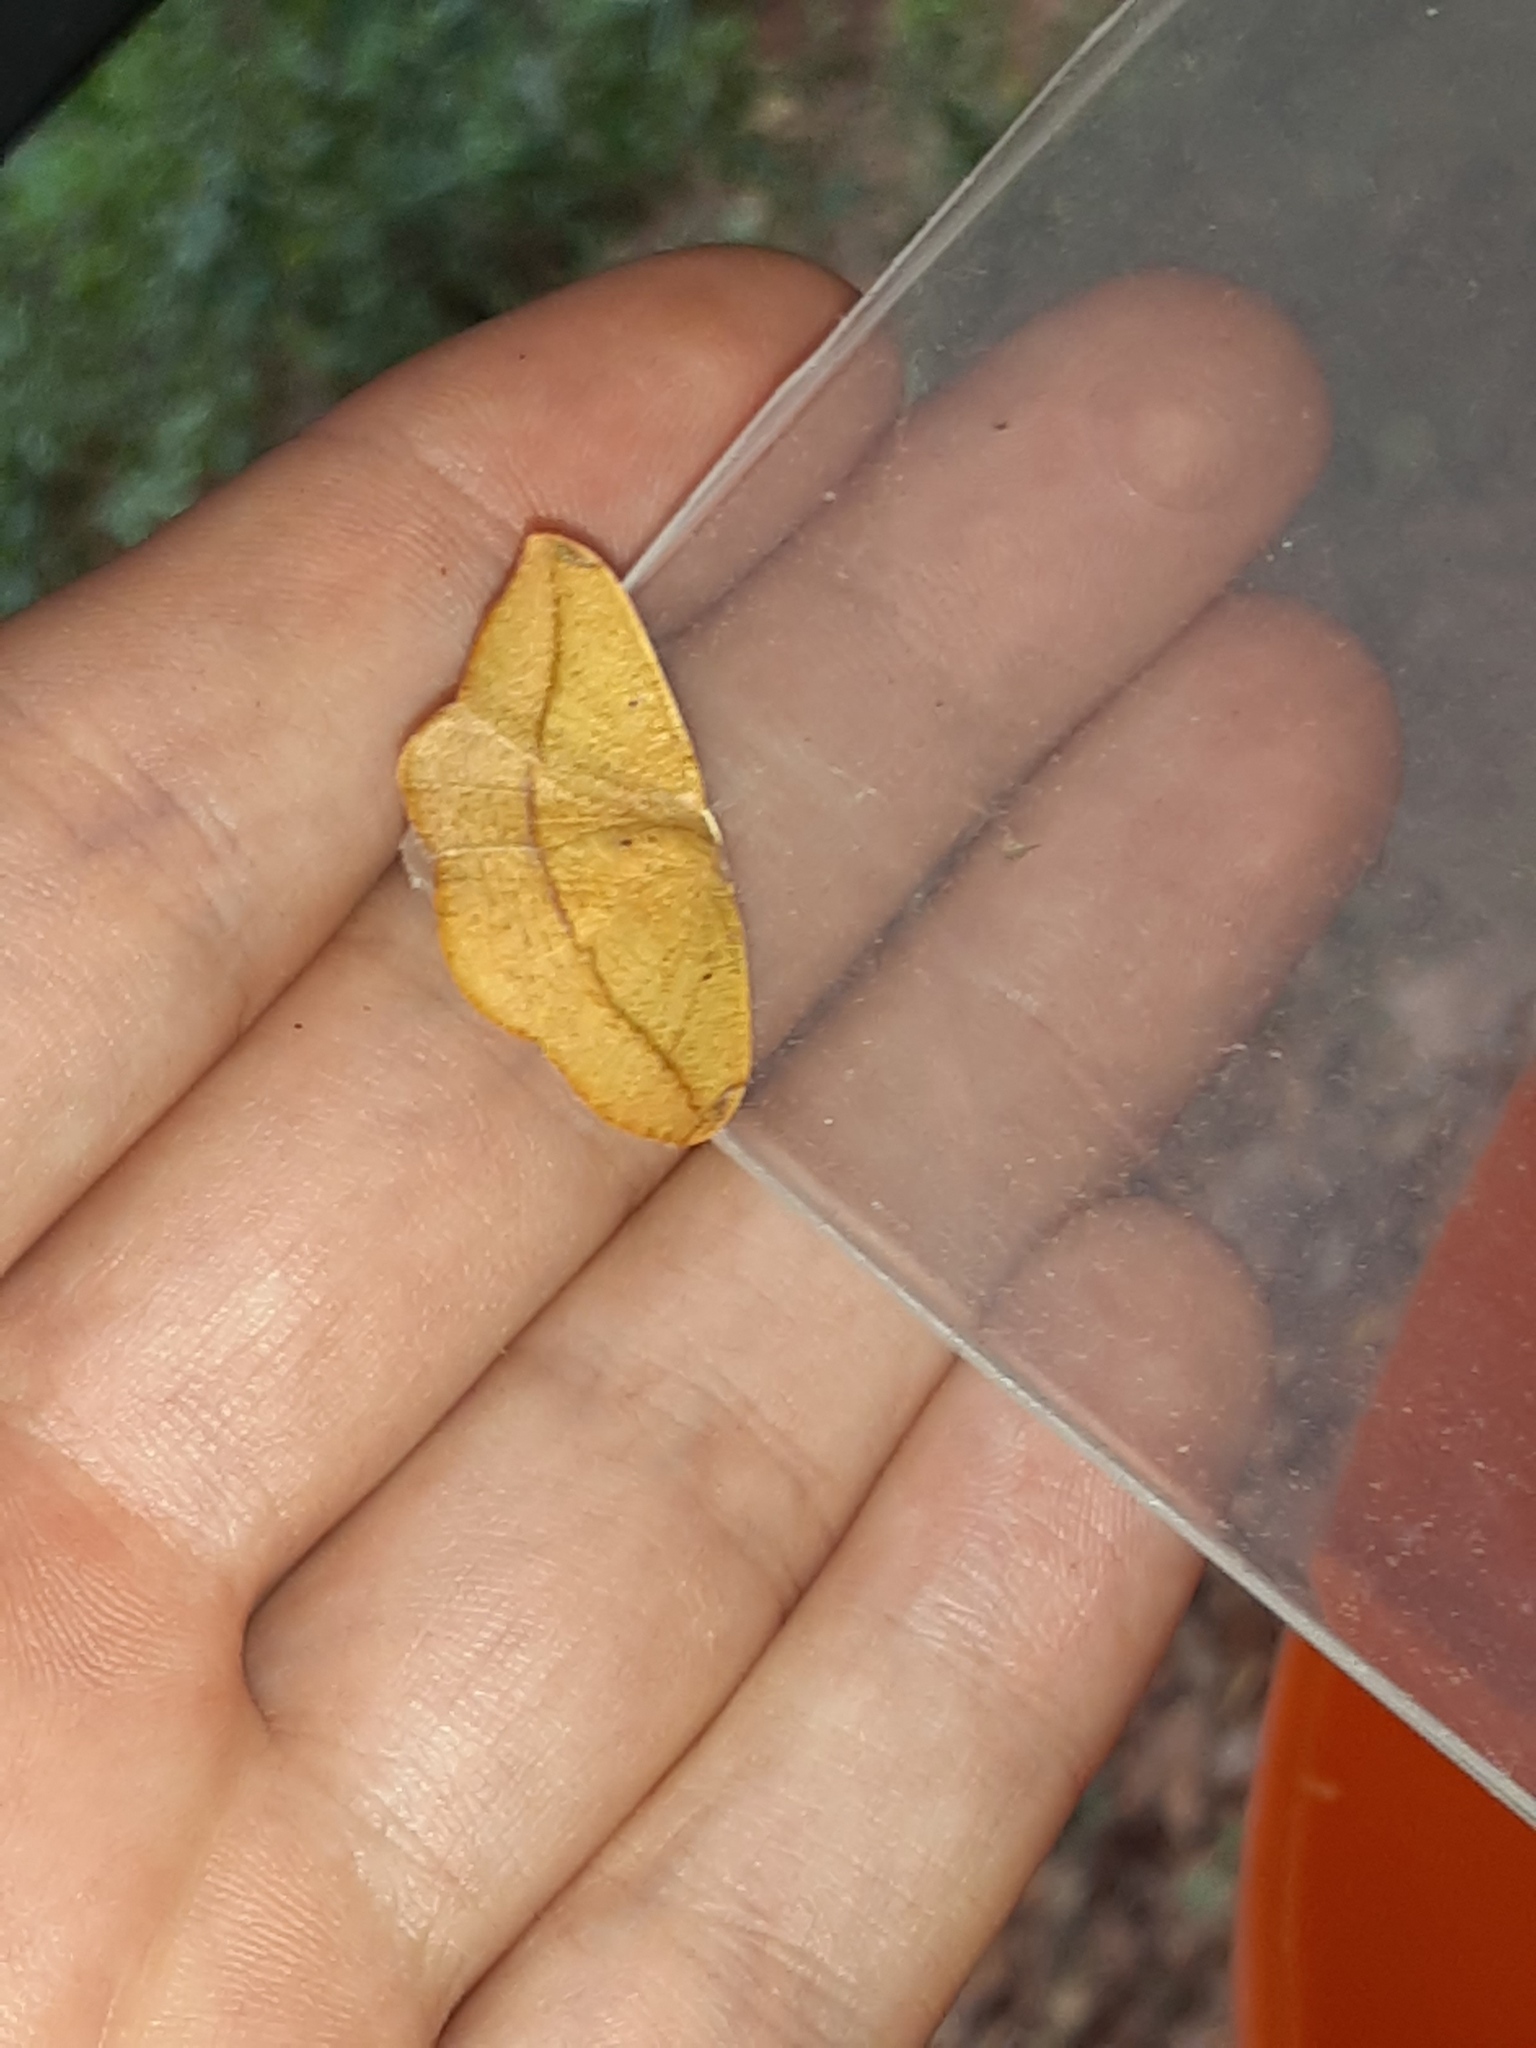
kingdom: Animalia
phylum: Arthropoda
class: Insecta
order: Lepidoptera
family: Geometridae
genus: Patalene
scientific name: Patalene olyzonaria
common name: Juniper geometer moth
